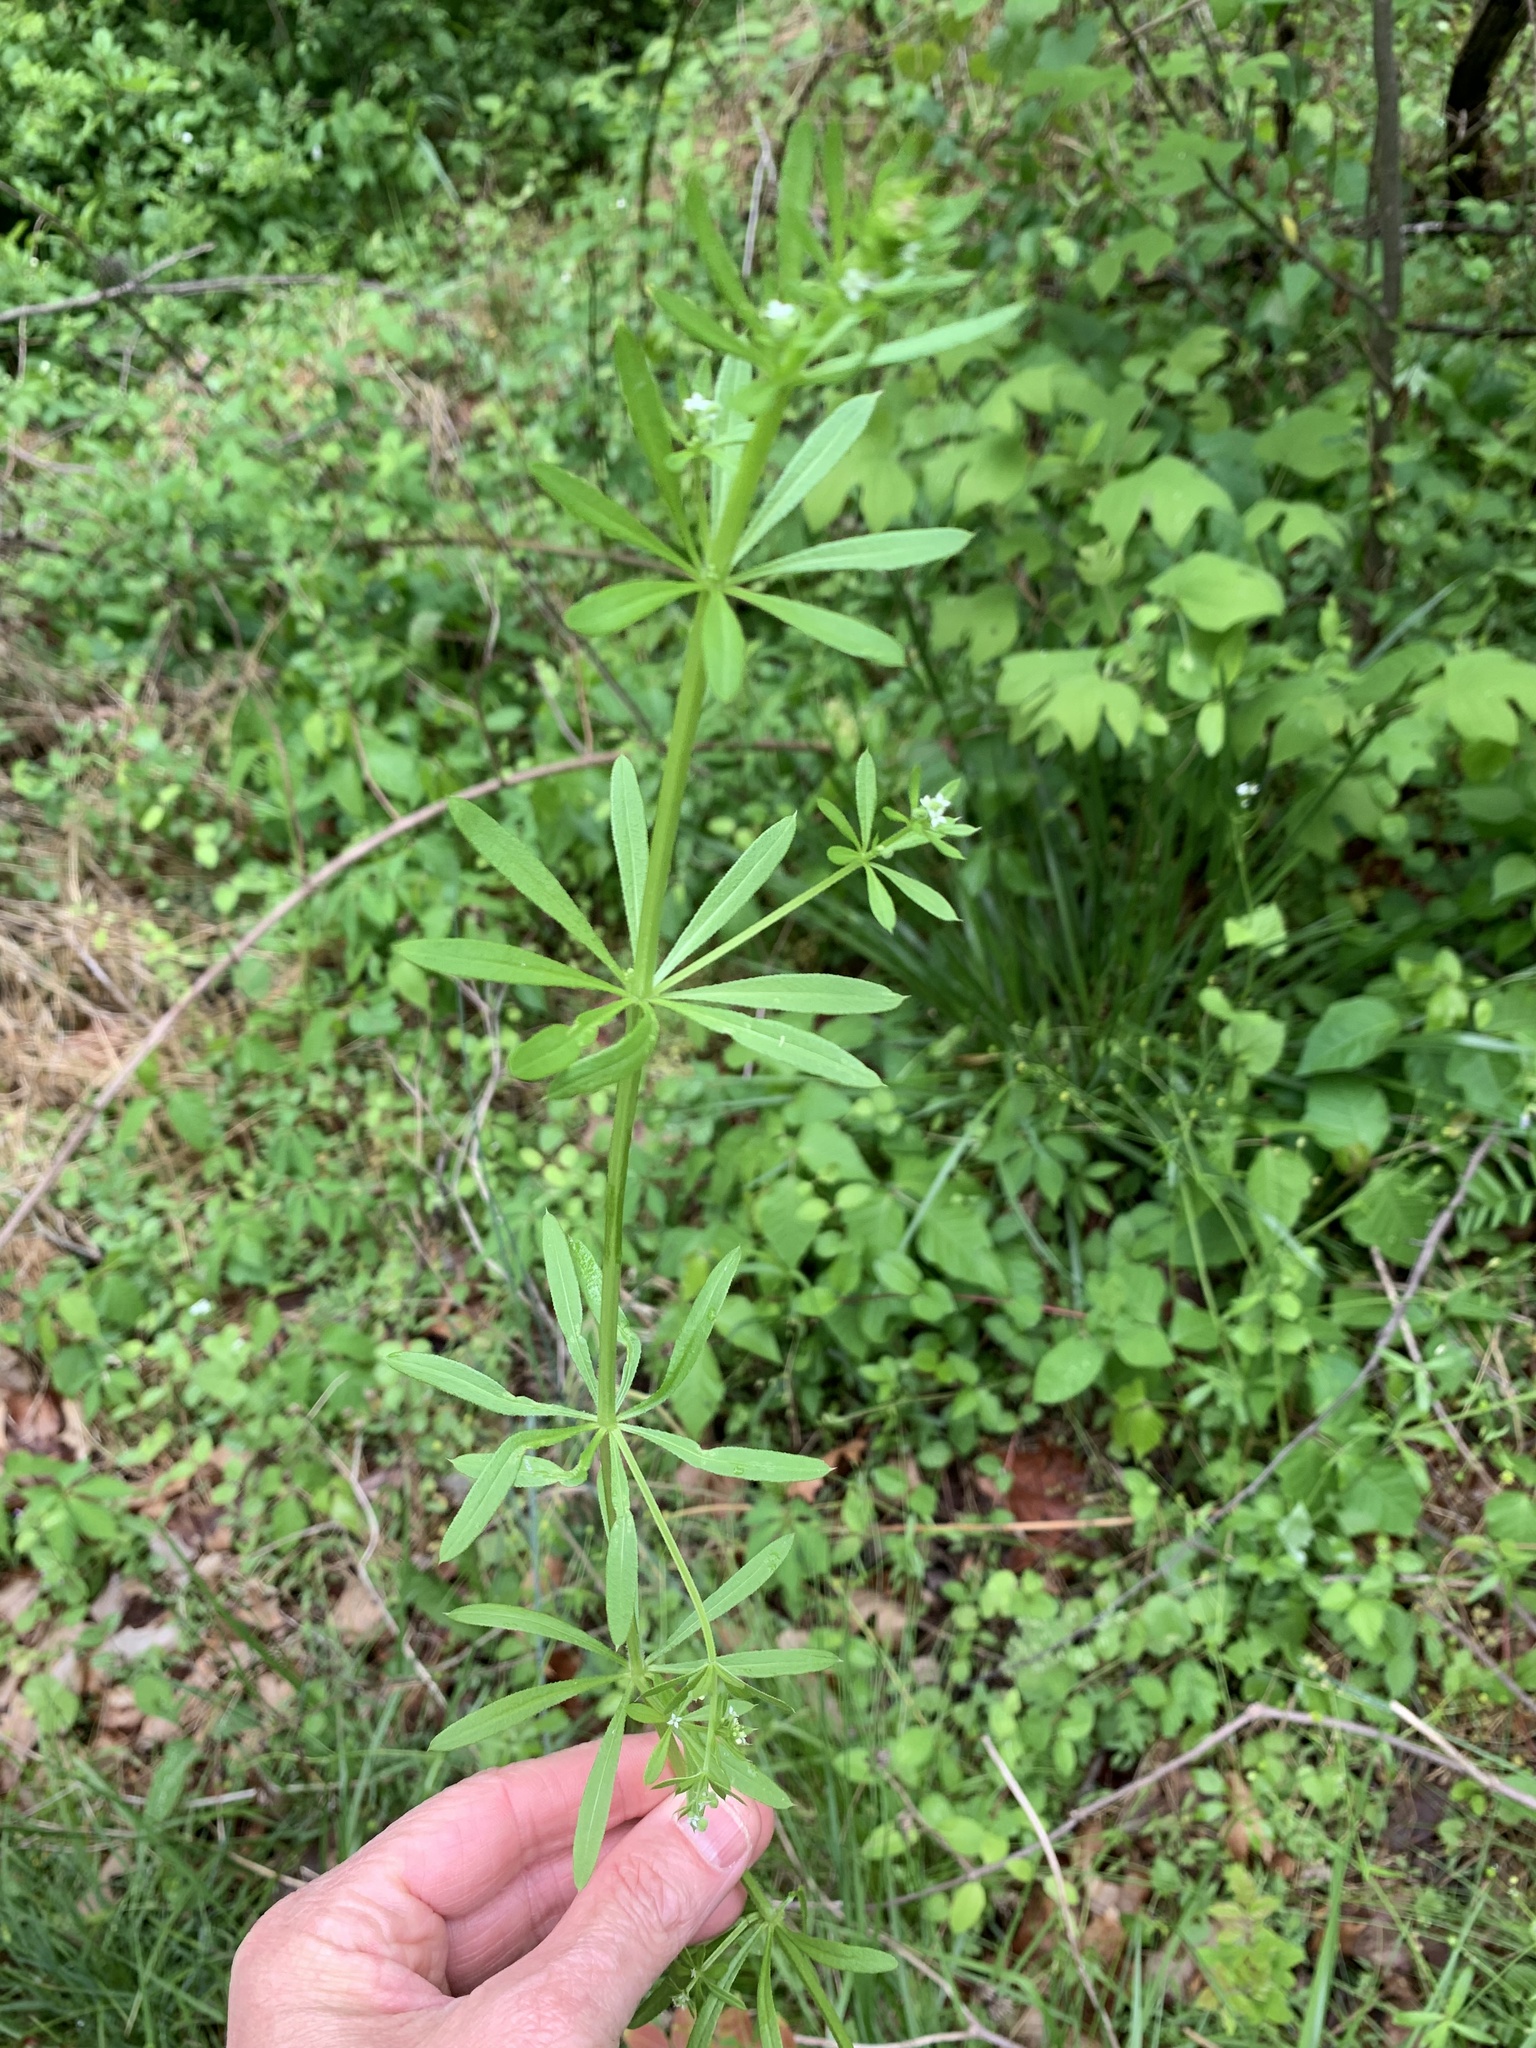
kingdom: Plantae
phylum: Tracheophyta
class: Magnoliopsida
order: Gentianales
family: Rubiaceae
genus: Galium
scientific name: Galium aparine
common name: Cleavers
